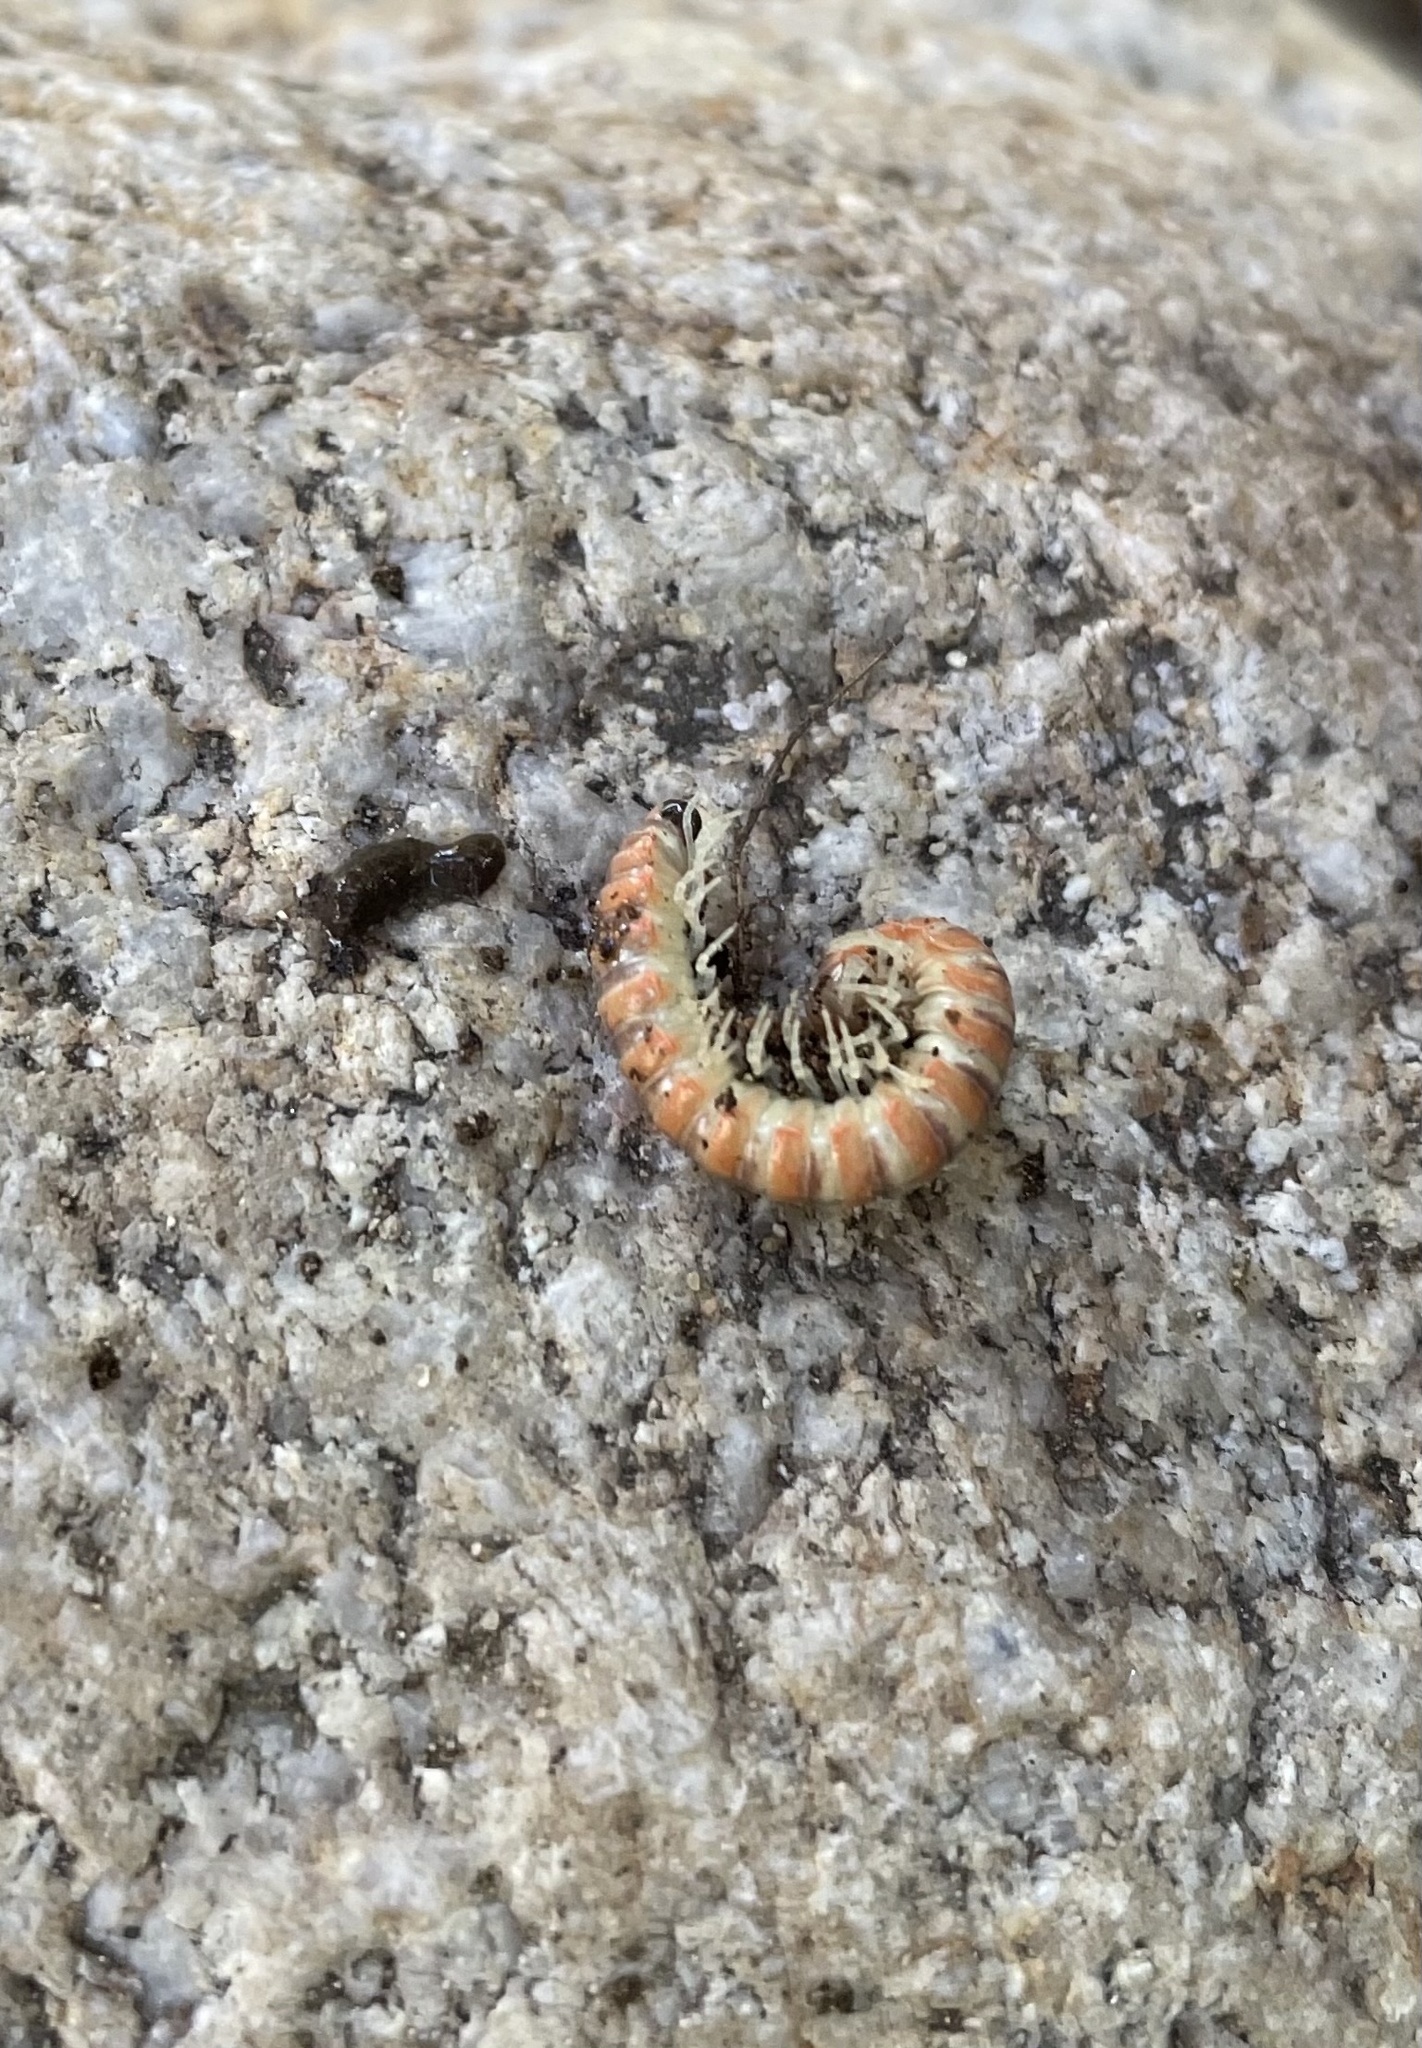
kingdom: Animalia
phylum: Arthropoda
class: Diplopoda
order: Polydesmida
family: Xystodesmidae
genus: Motyxia
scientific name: Motyxia monica
